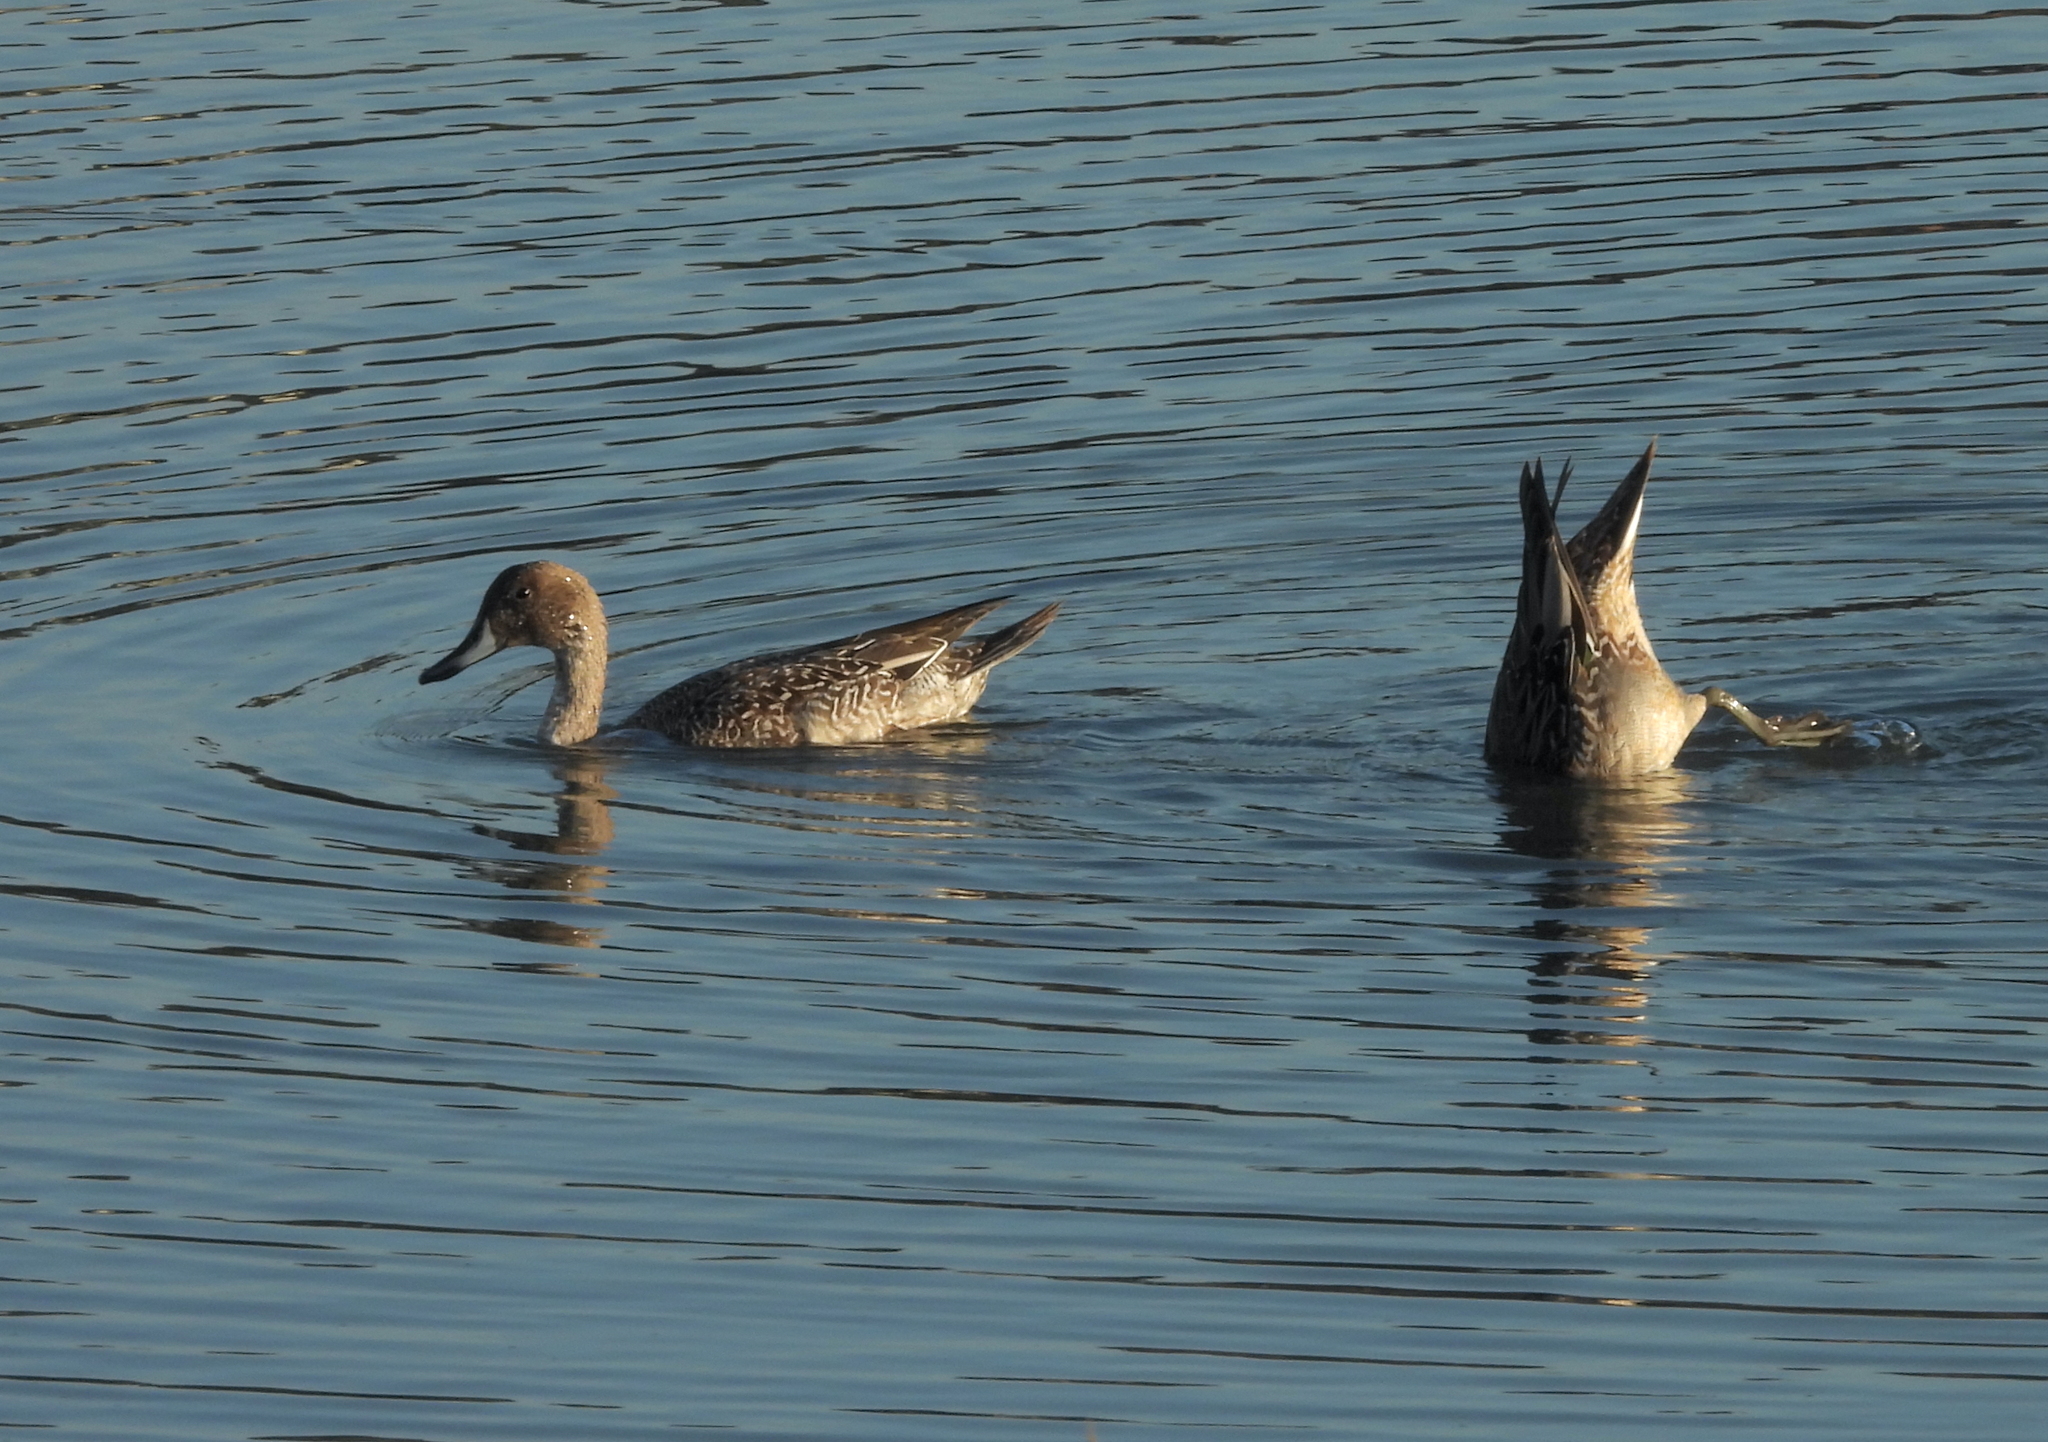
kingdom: Animalia
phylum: Chordata
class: Aves
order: Anseriformes
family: Anatidae
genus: Anas
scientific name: Anas acuta
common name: Northern pintail
